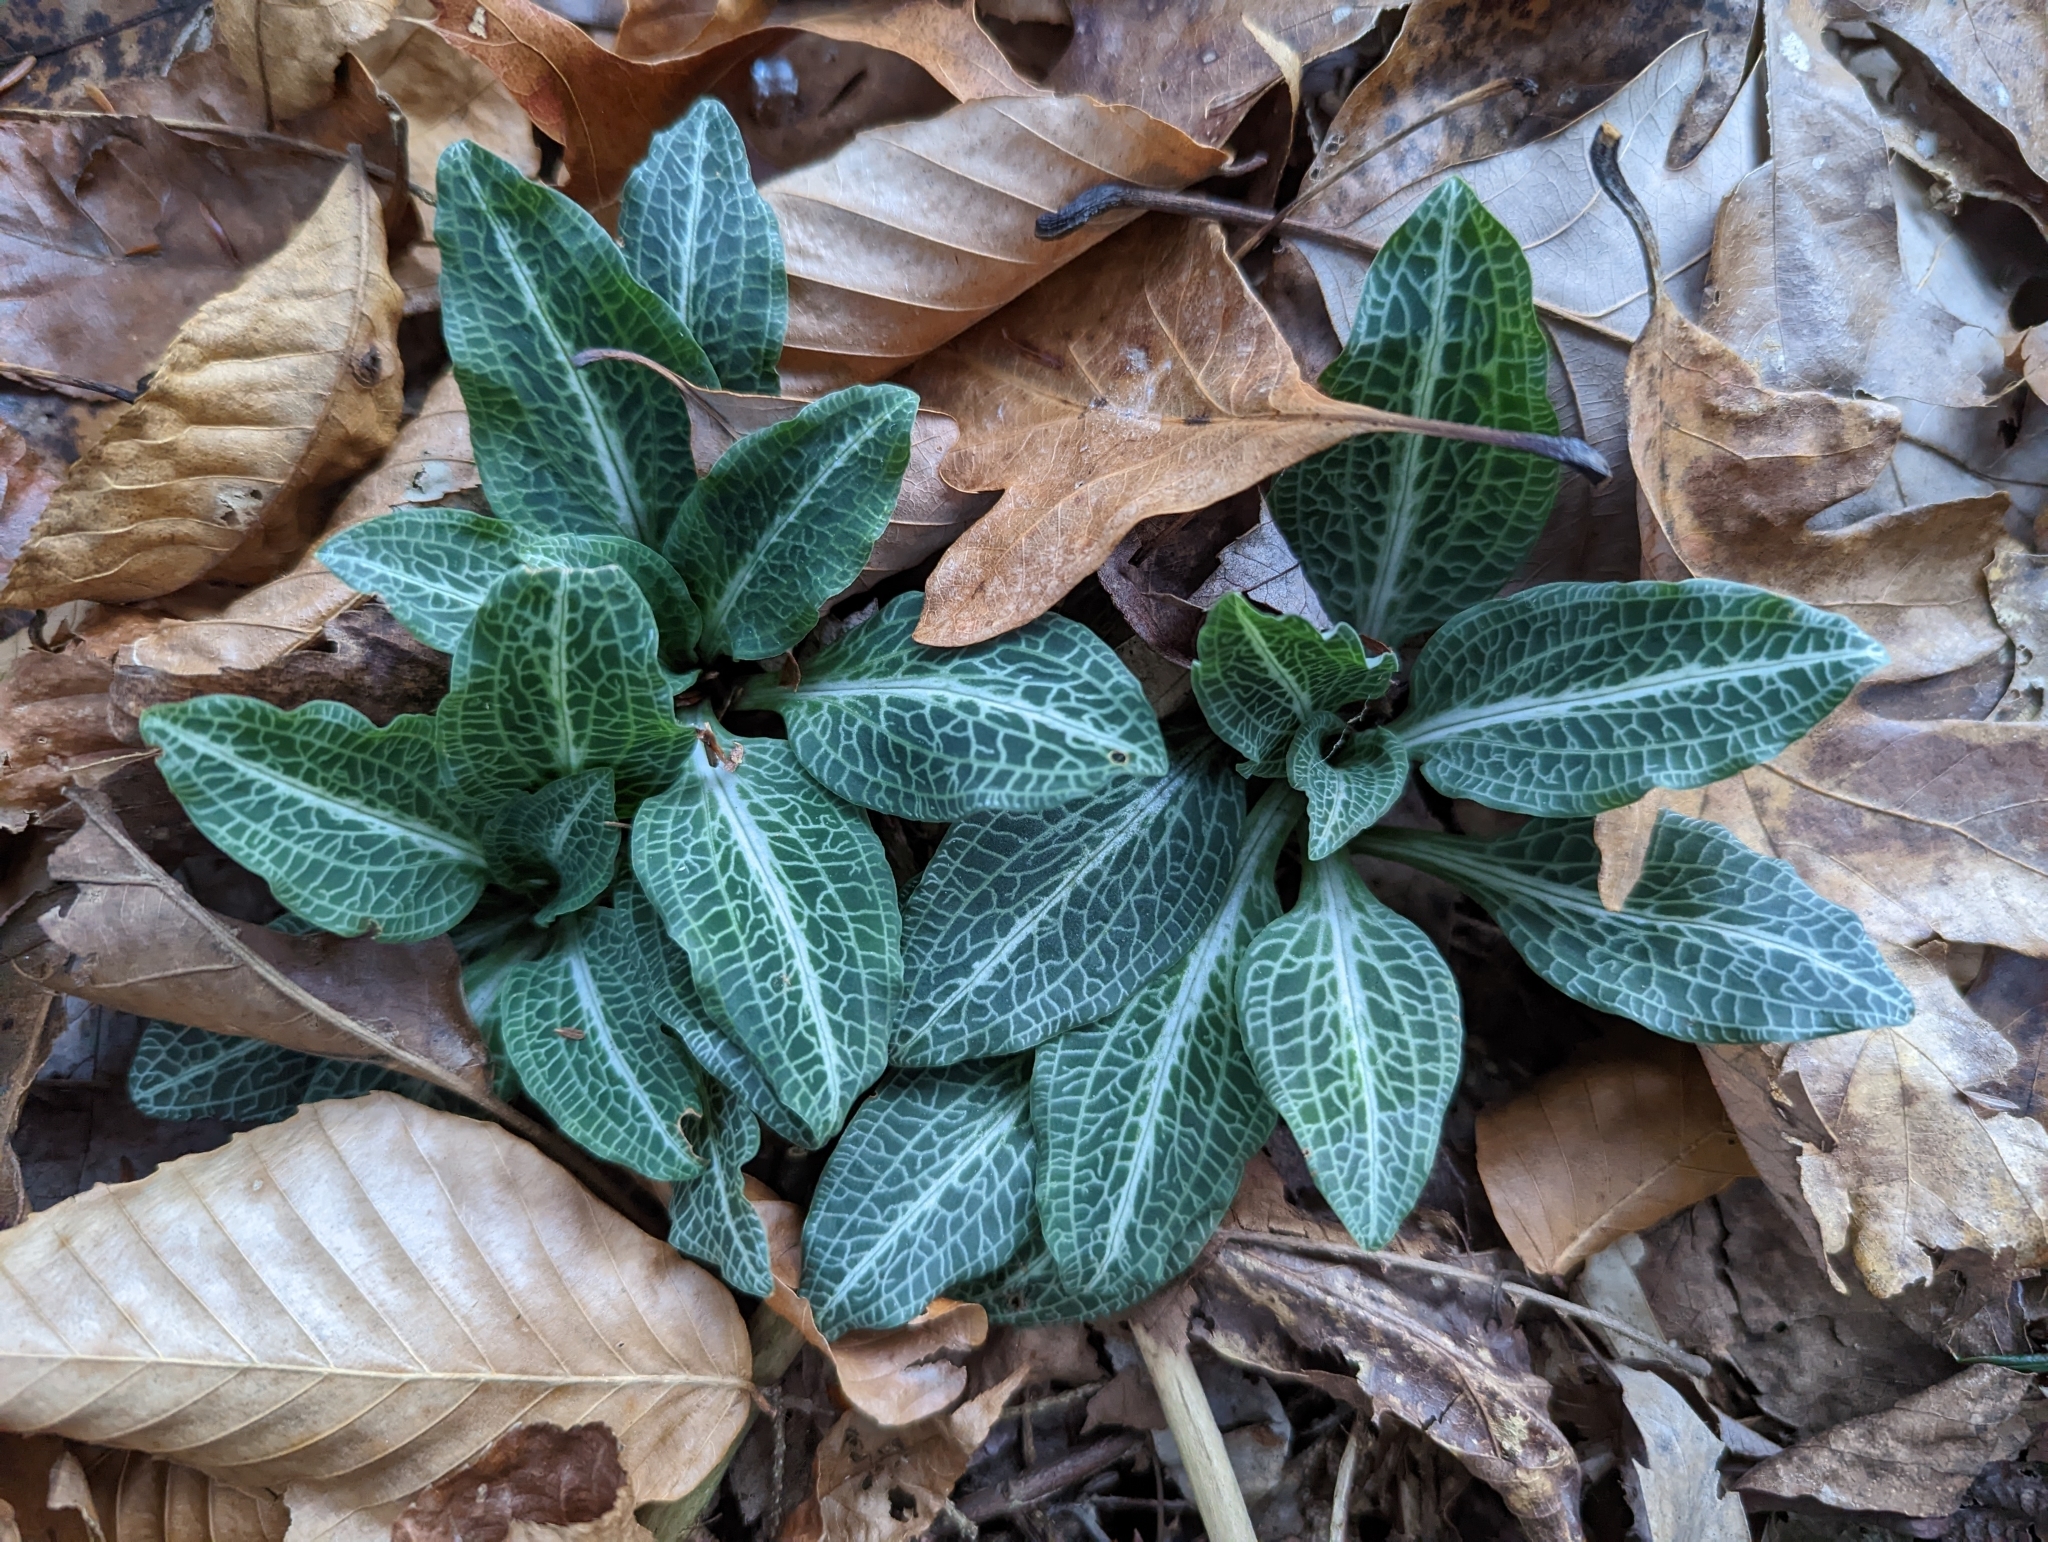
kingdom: Plantae
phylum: Tracheophyta
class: Liliopsida
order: Asparagales
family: Orchidaceae
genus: Goodyera
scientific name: Goodyera pubescens
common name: Downy rattlesnake-plantain
